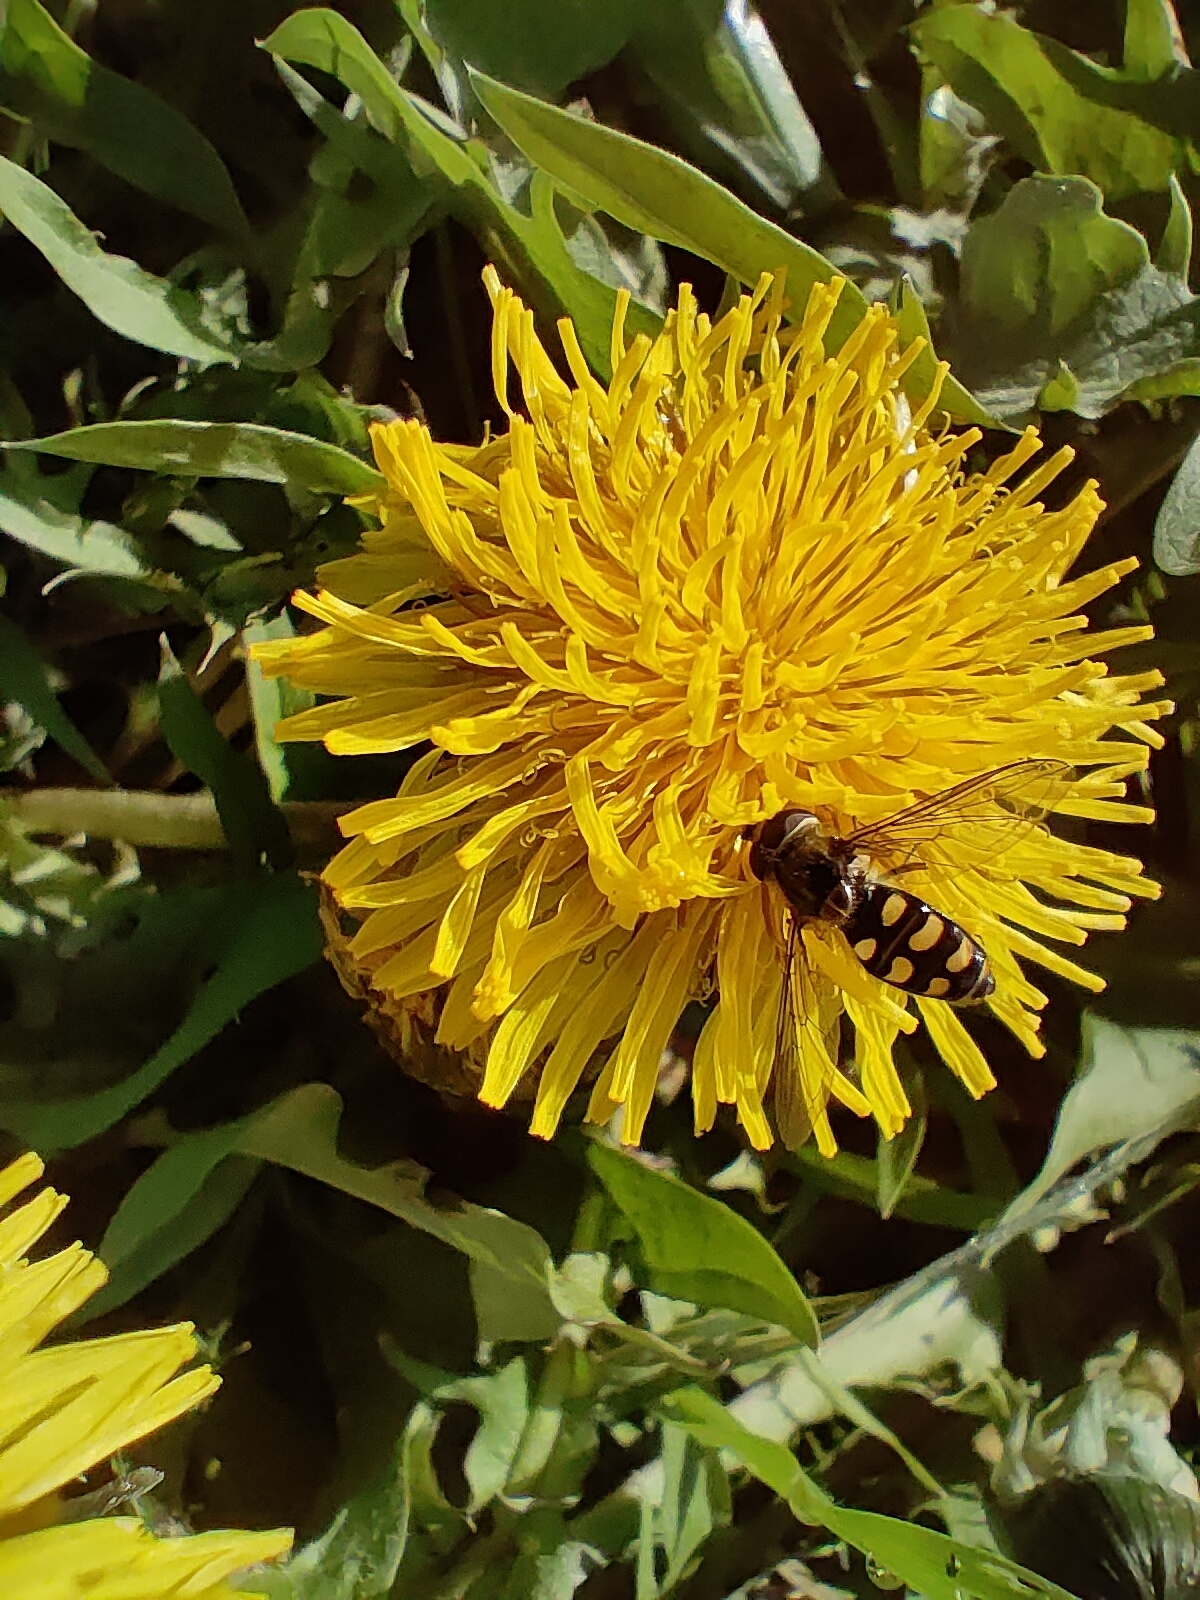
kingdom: Animalia
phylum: Arthropoda
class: Insecta
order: Diptera
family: Syrphidae
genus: Eupeodes
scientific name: Eupeodes corollae
